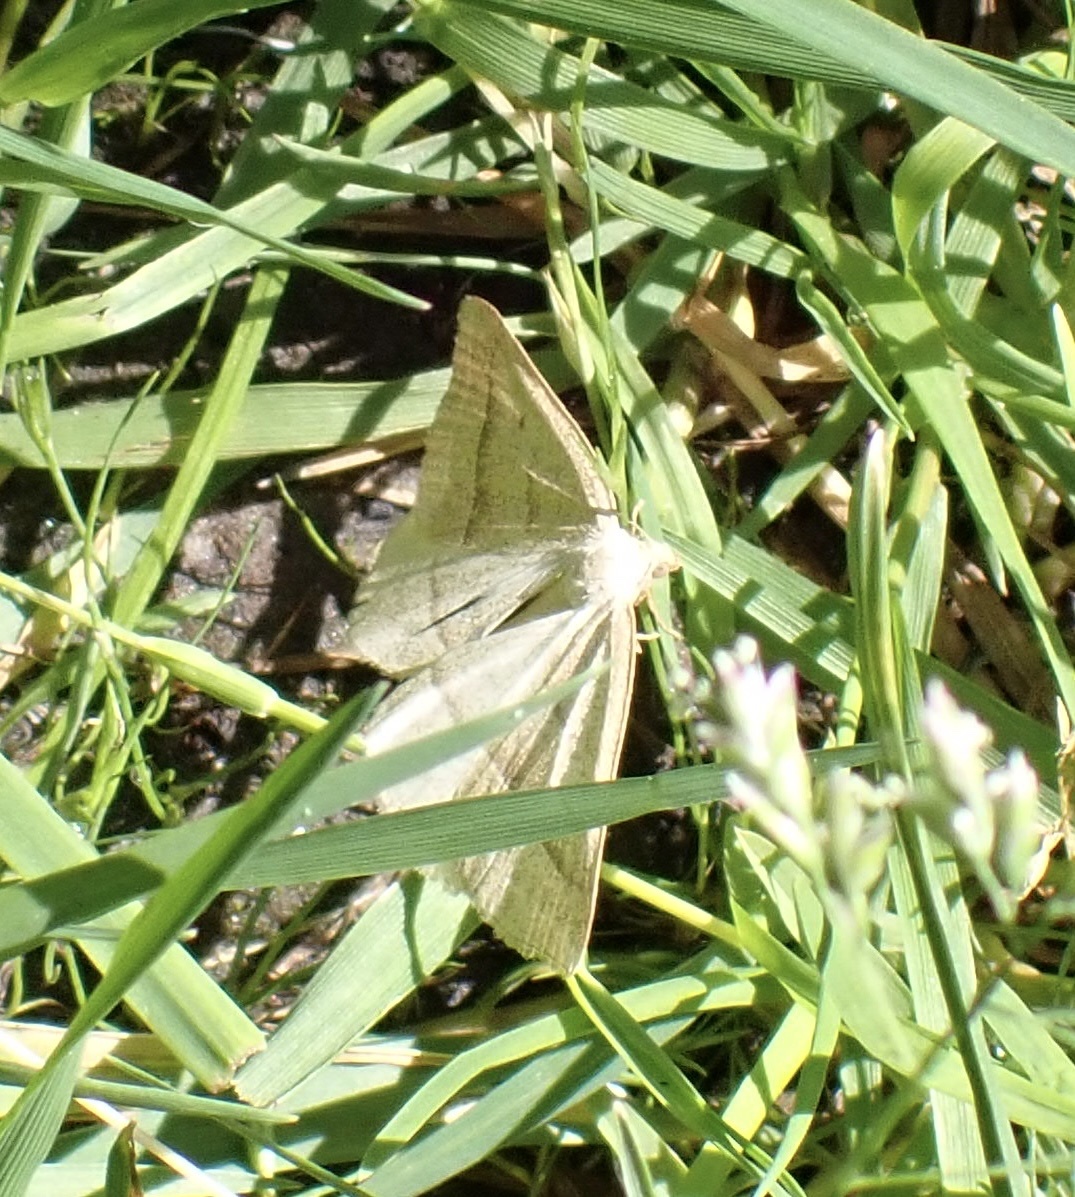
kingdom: Animalia
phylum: Arthropoda
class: Insecta
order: Lepidoptera
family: Pterophoridae
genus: Pterophorus
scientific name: Pterophorus Petrophora chlorosata
